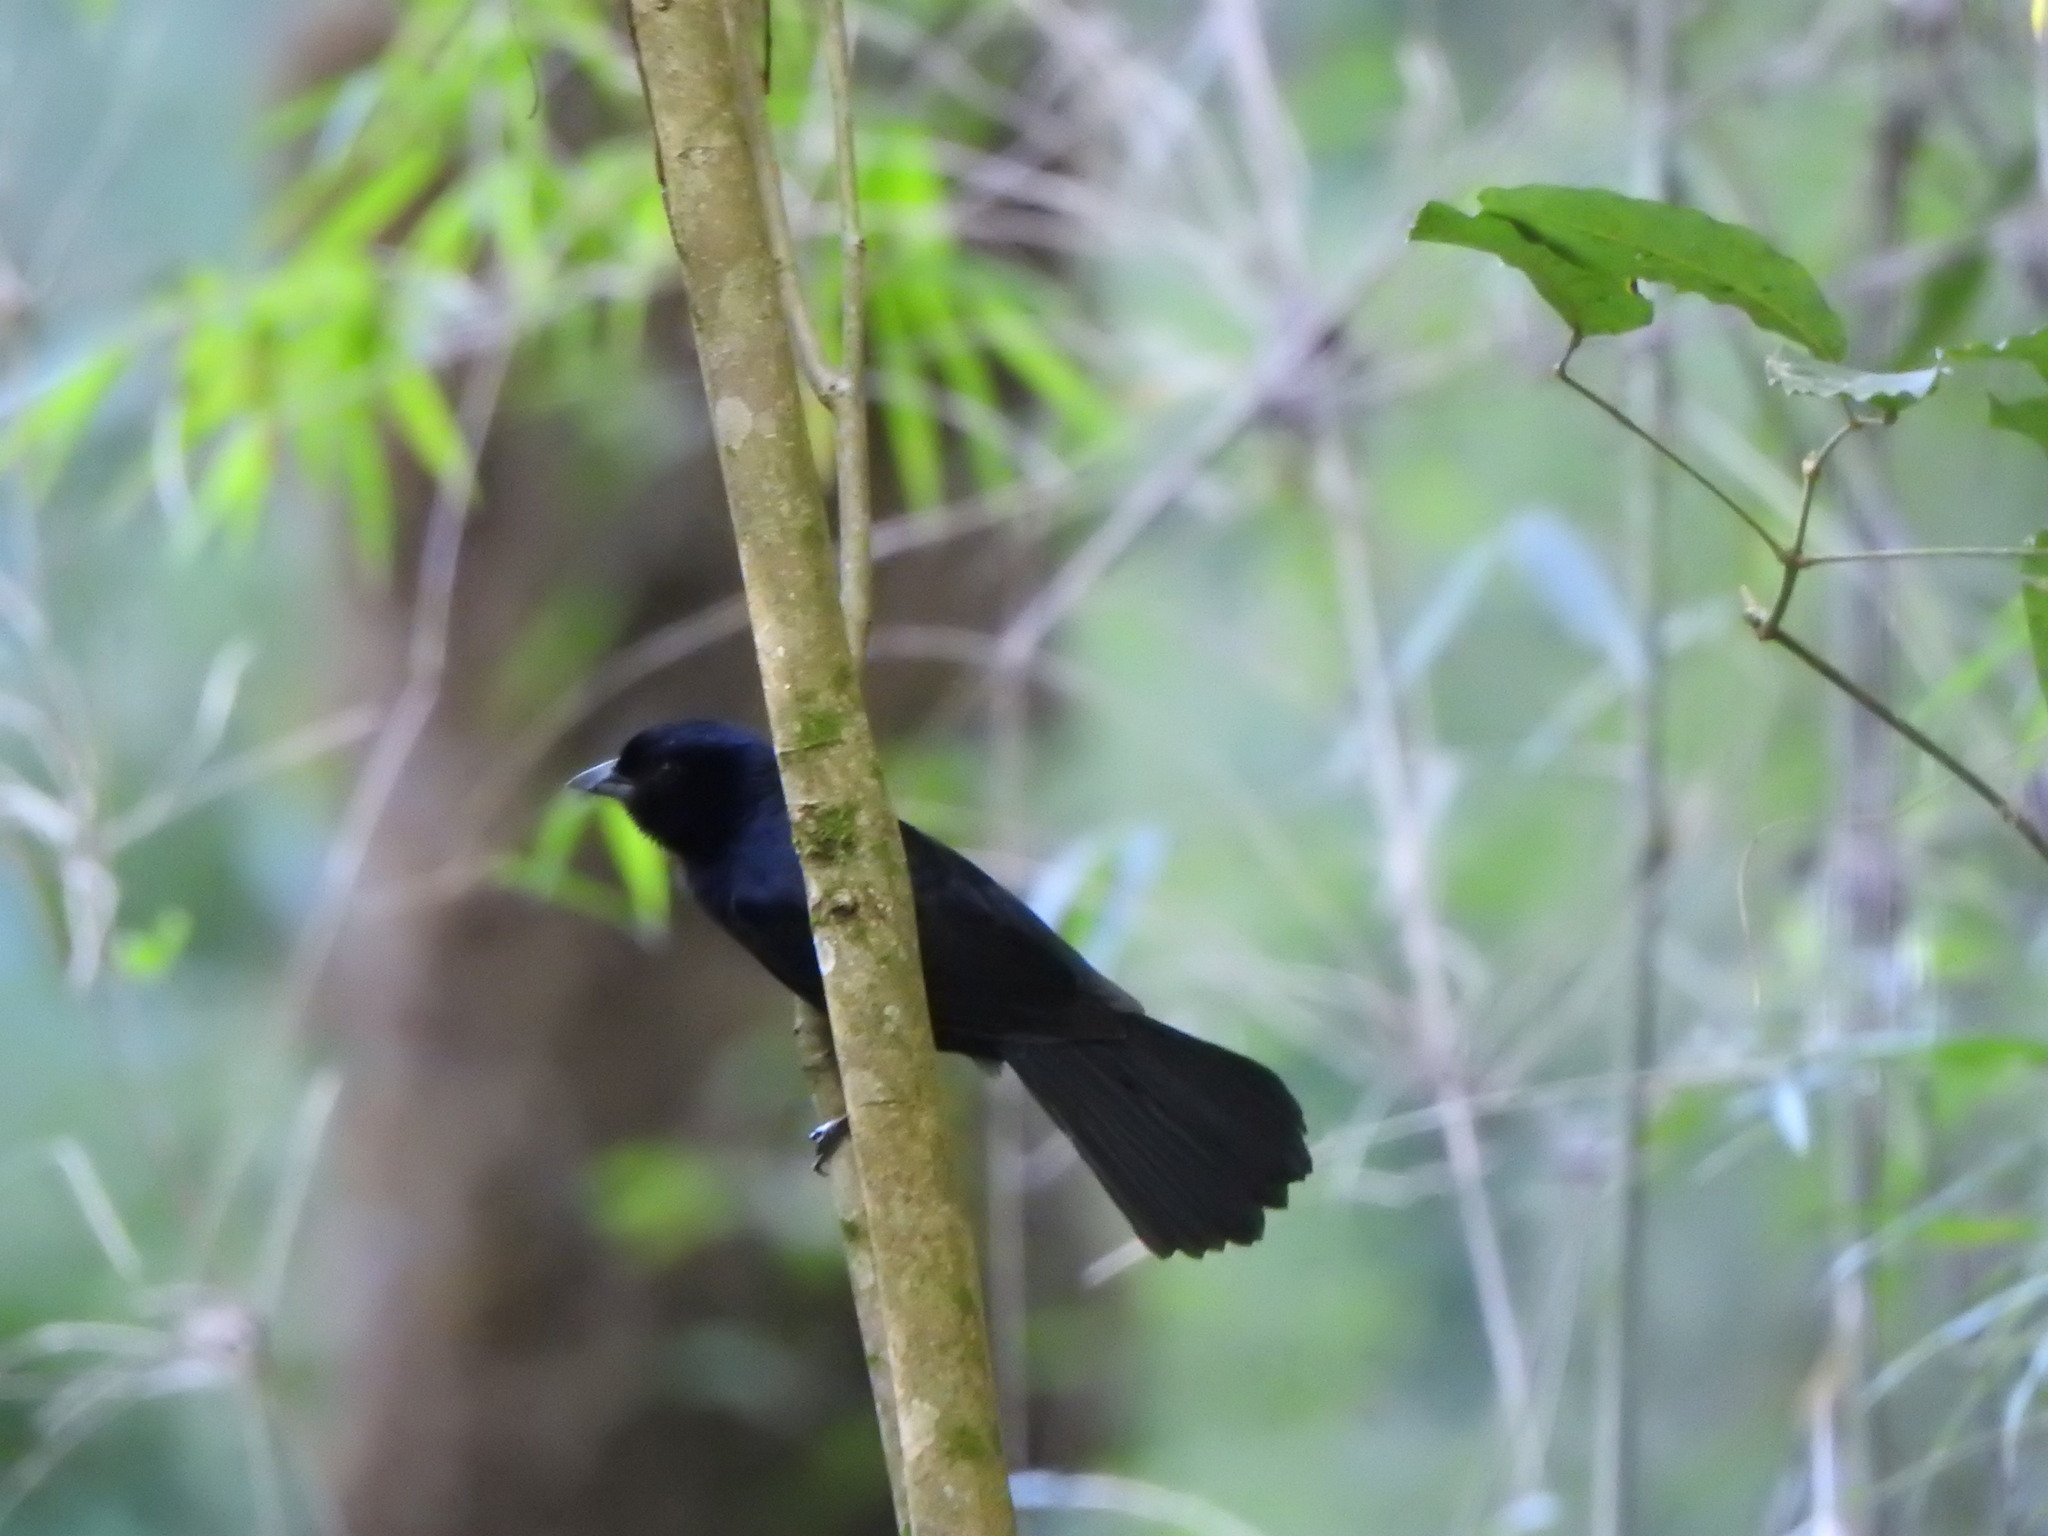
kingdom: Animalia
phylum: Chordata
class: Aves
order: Passeriformes
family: Thraupidae
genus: Tachyphonus
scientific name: Tachyphonus coronatus
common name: Ruby-crowned tanager
